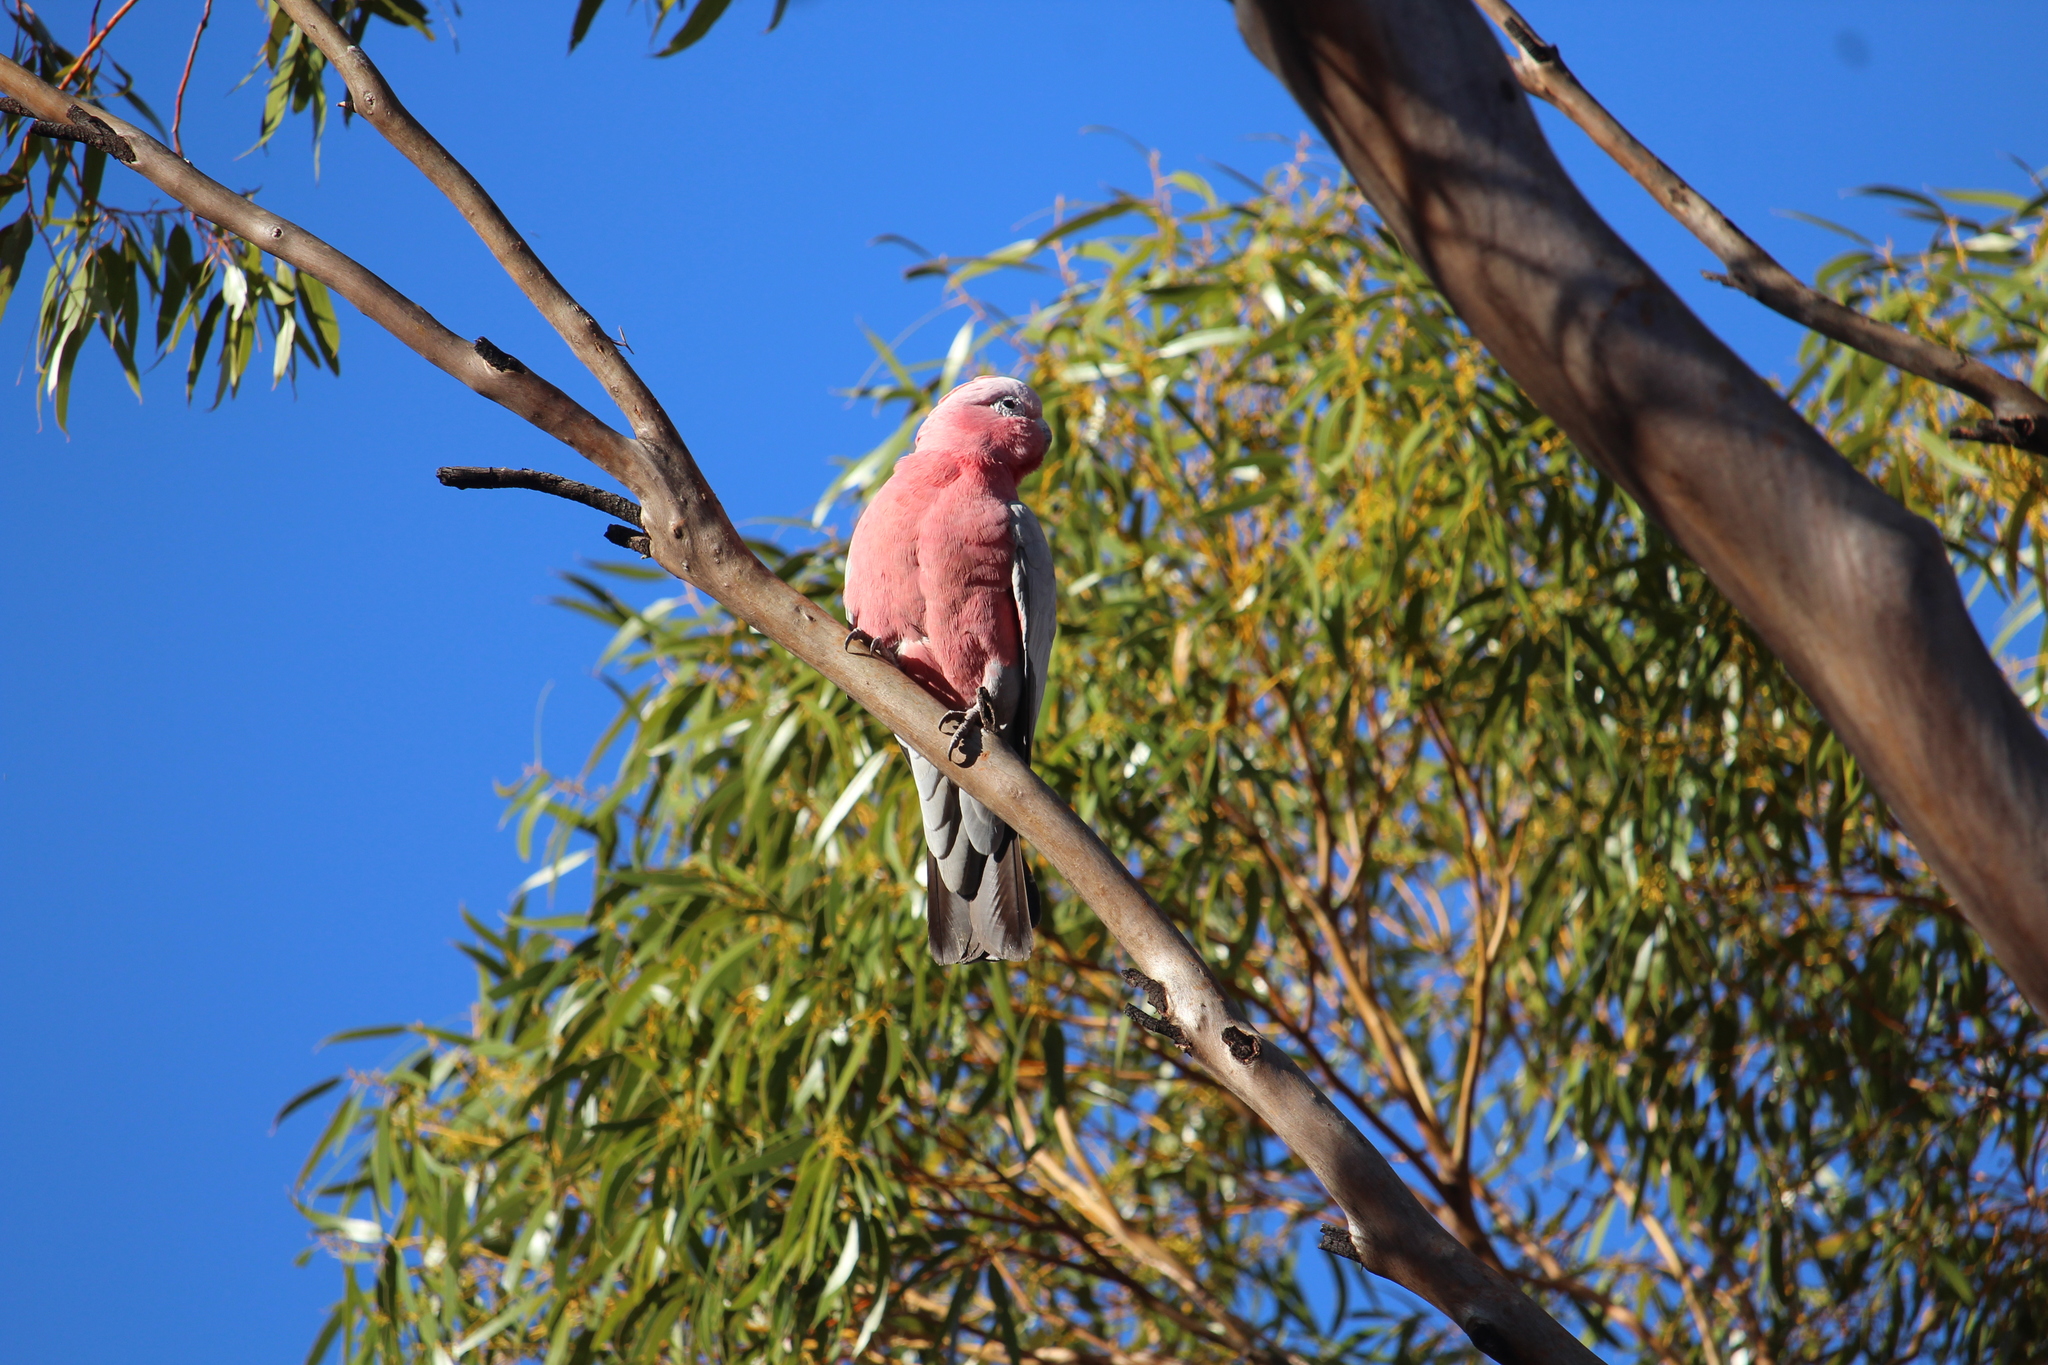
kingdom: Animalia
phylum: Chordata
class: Aves
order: Psittaciformes
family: Psittacidae
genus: Eolophus
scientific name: Eolophus roseicapilla
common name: Galah
